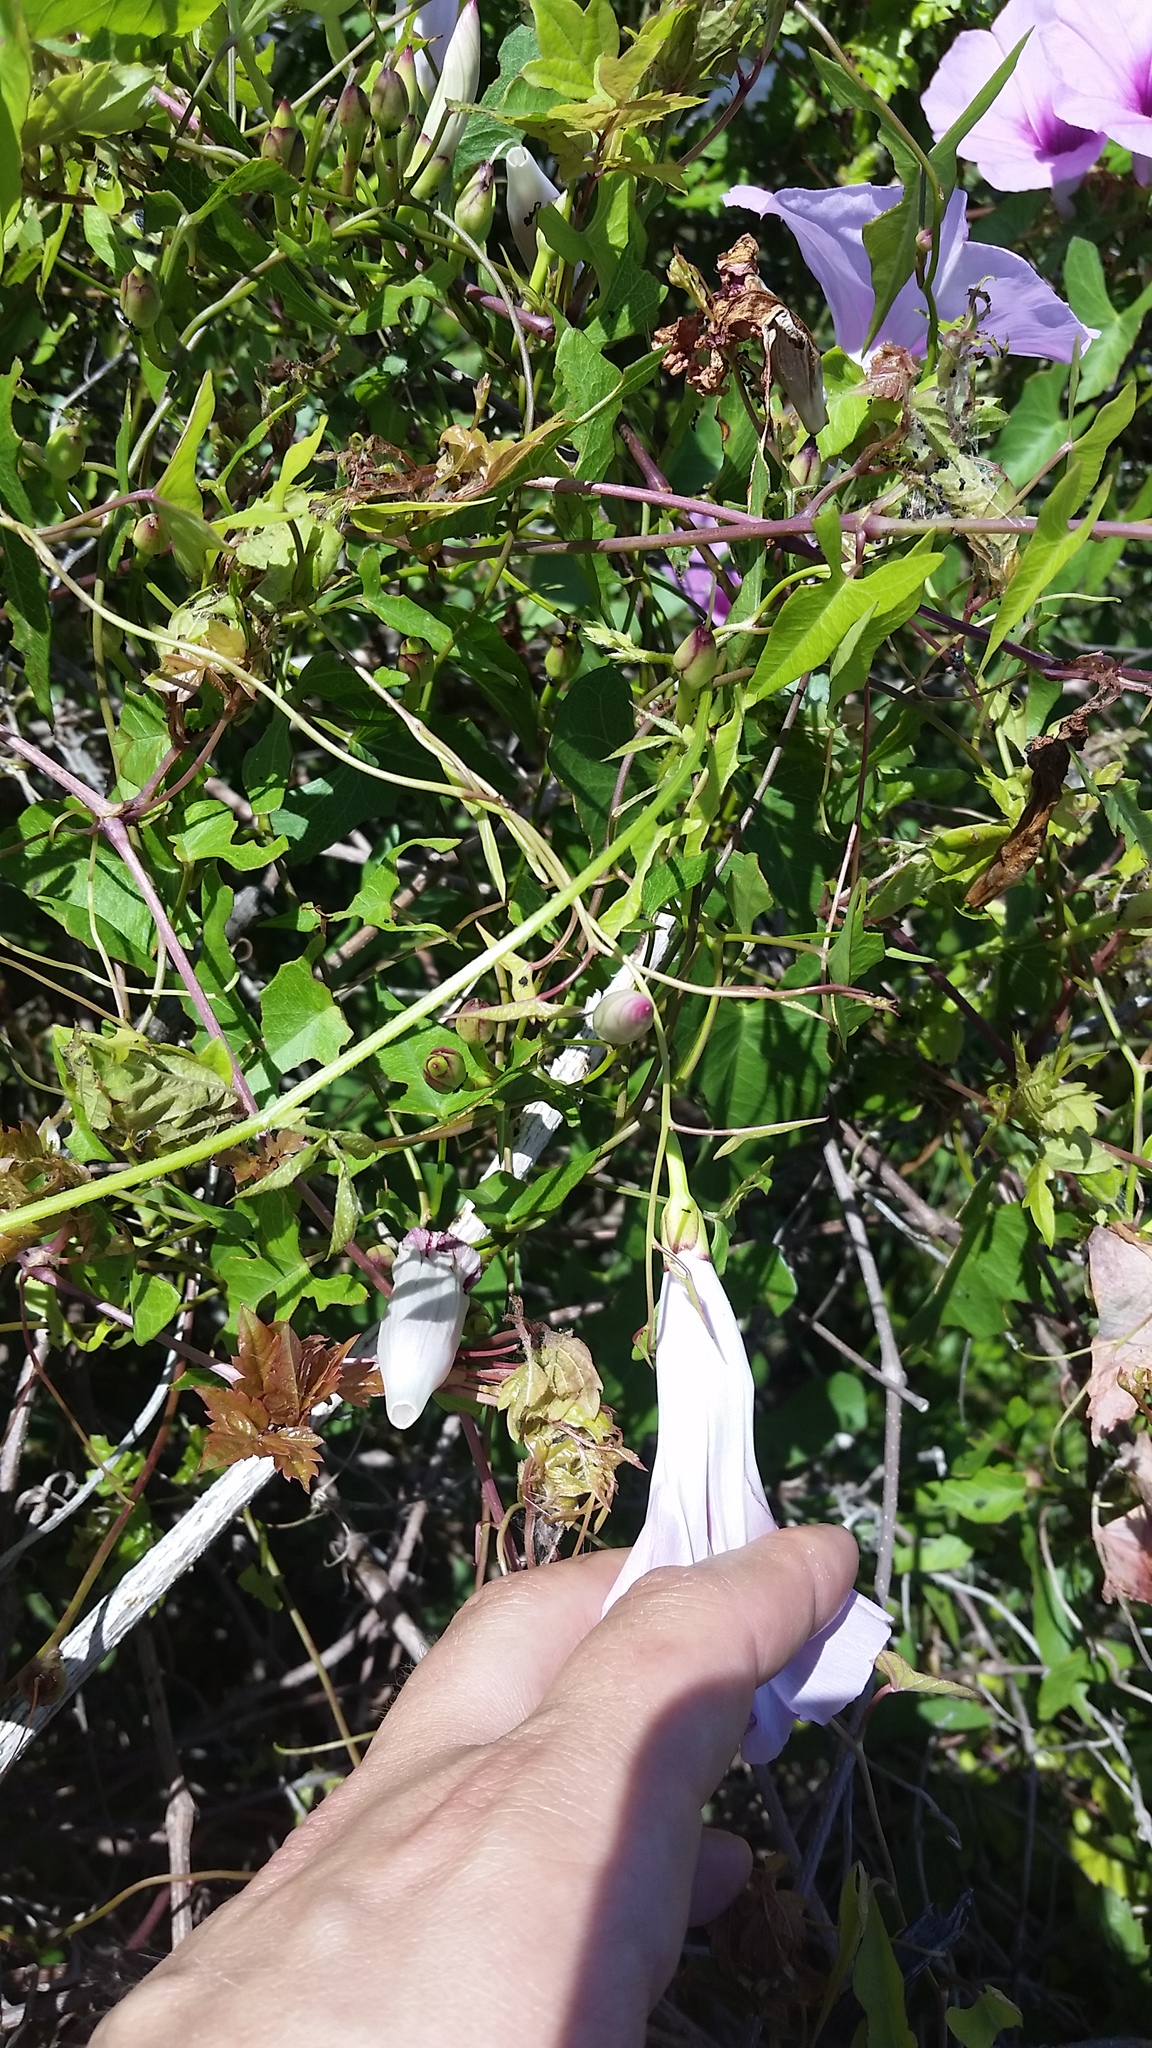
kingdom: Plantae
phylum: Tracheophyta
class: Magnoliopsida
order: Solanales
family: Convolvulaceae
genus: Ipomoea
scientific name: Ipomoea sagittata
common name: Saltmarsh morning glory
